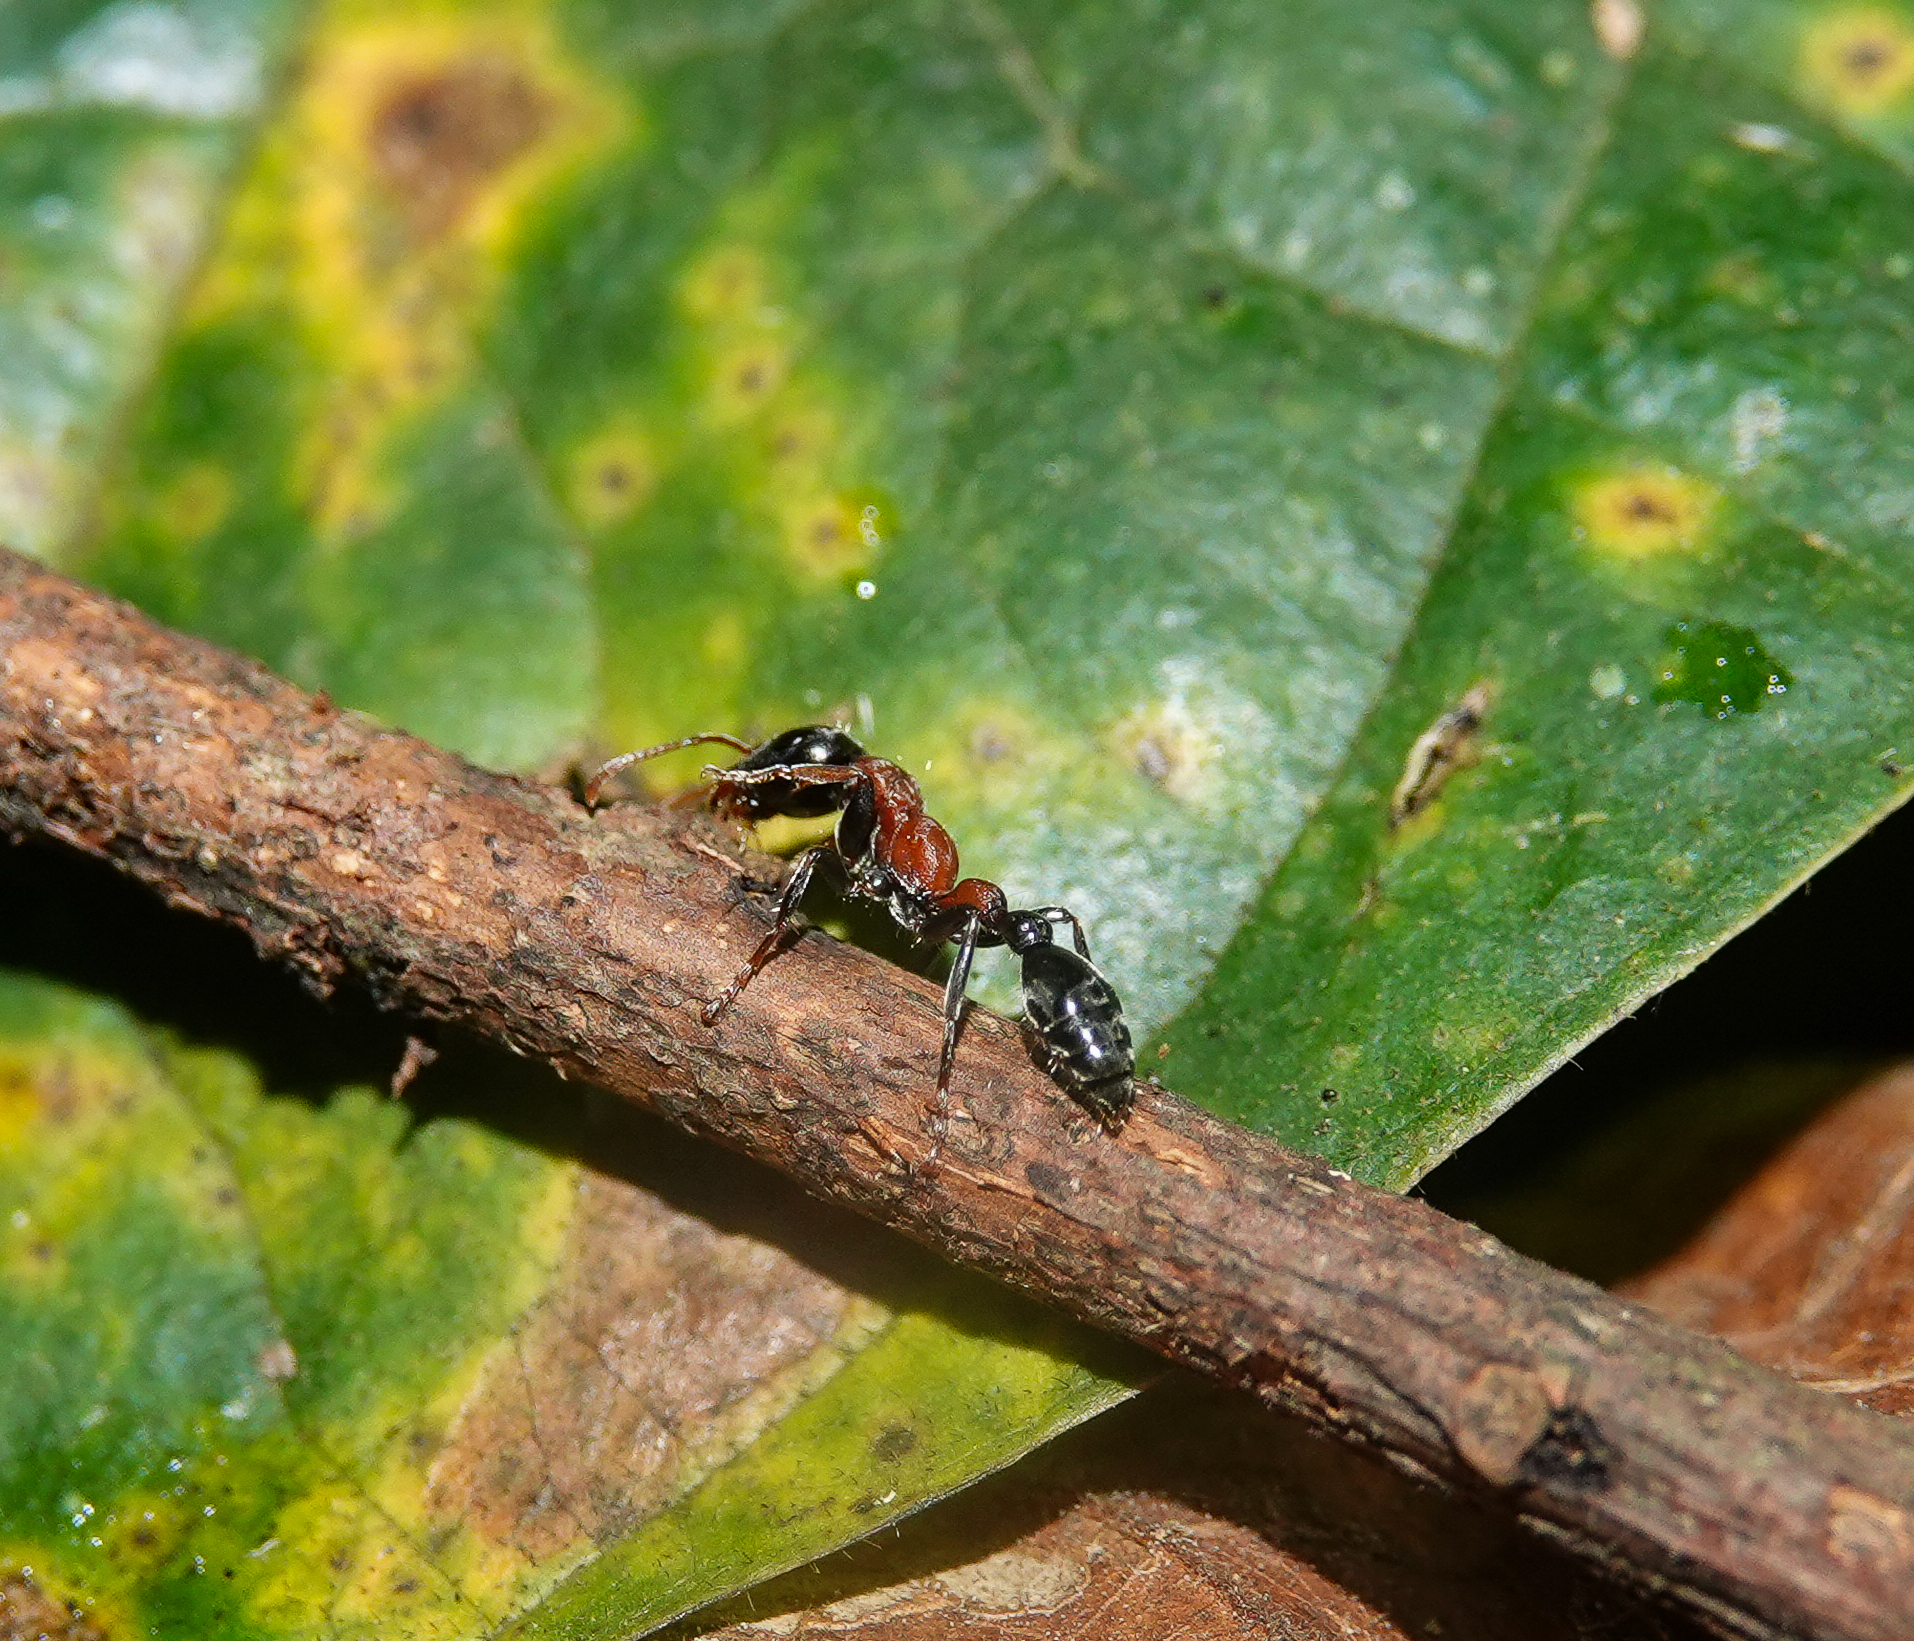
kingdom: Animalia
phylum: Arthropoda
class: Insecta
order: Hymenoptera
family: Formicidae
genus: Tetraponera
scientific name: Tetraponera rufonigra
